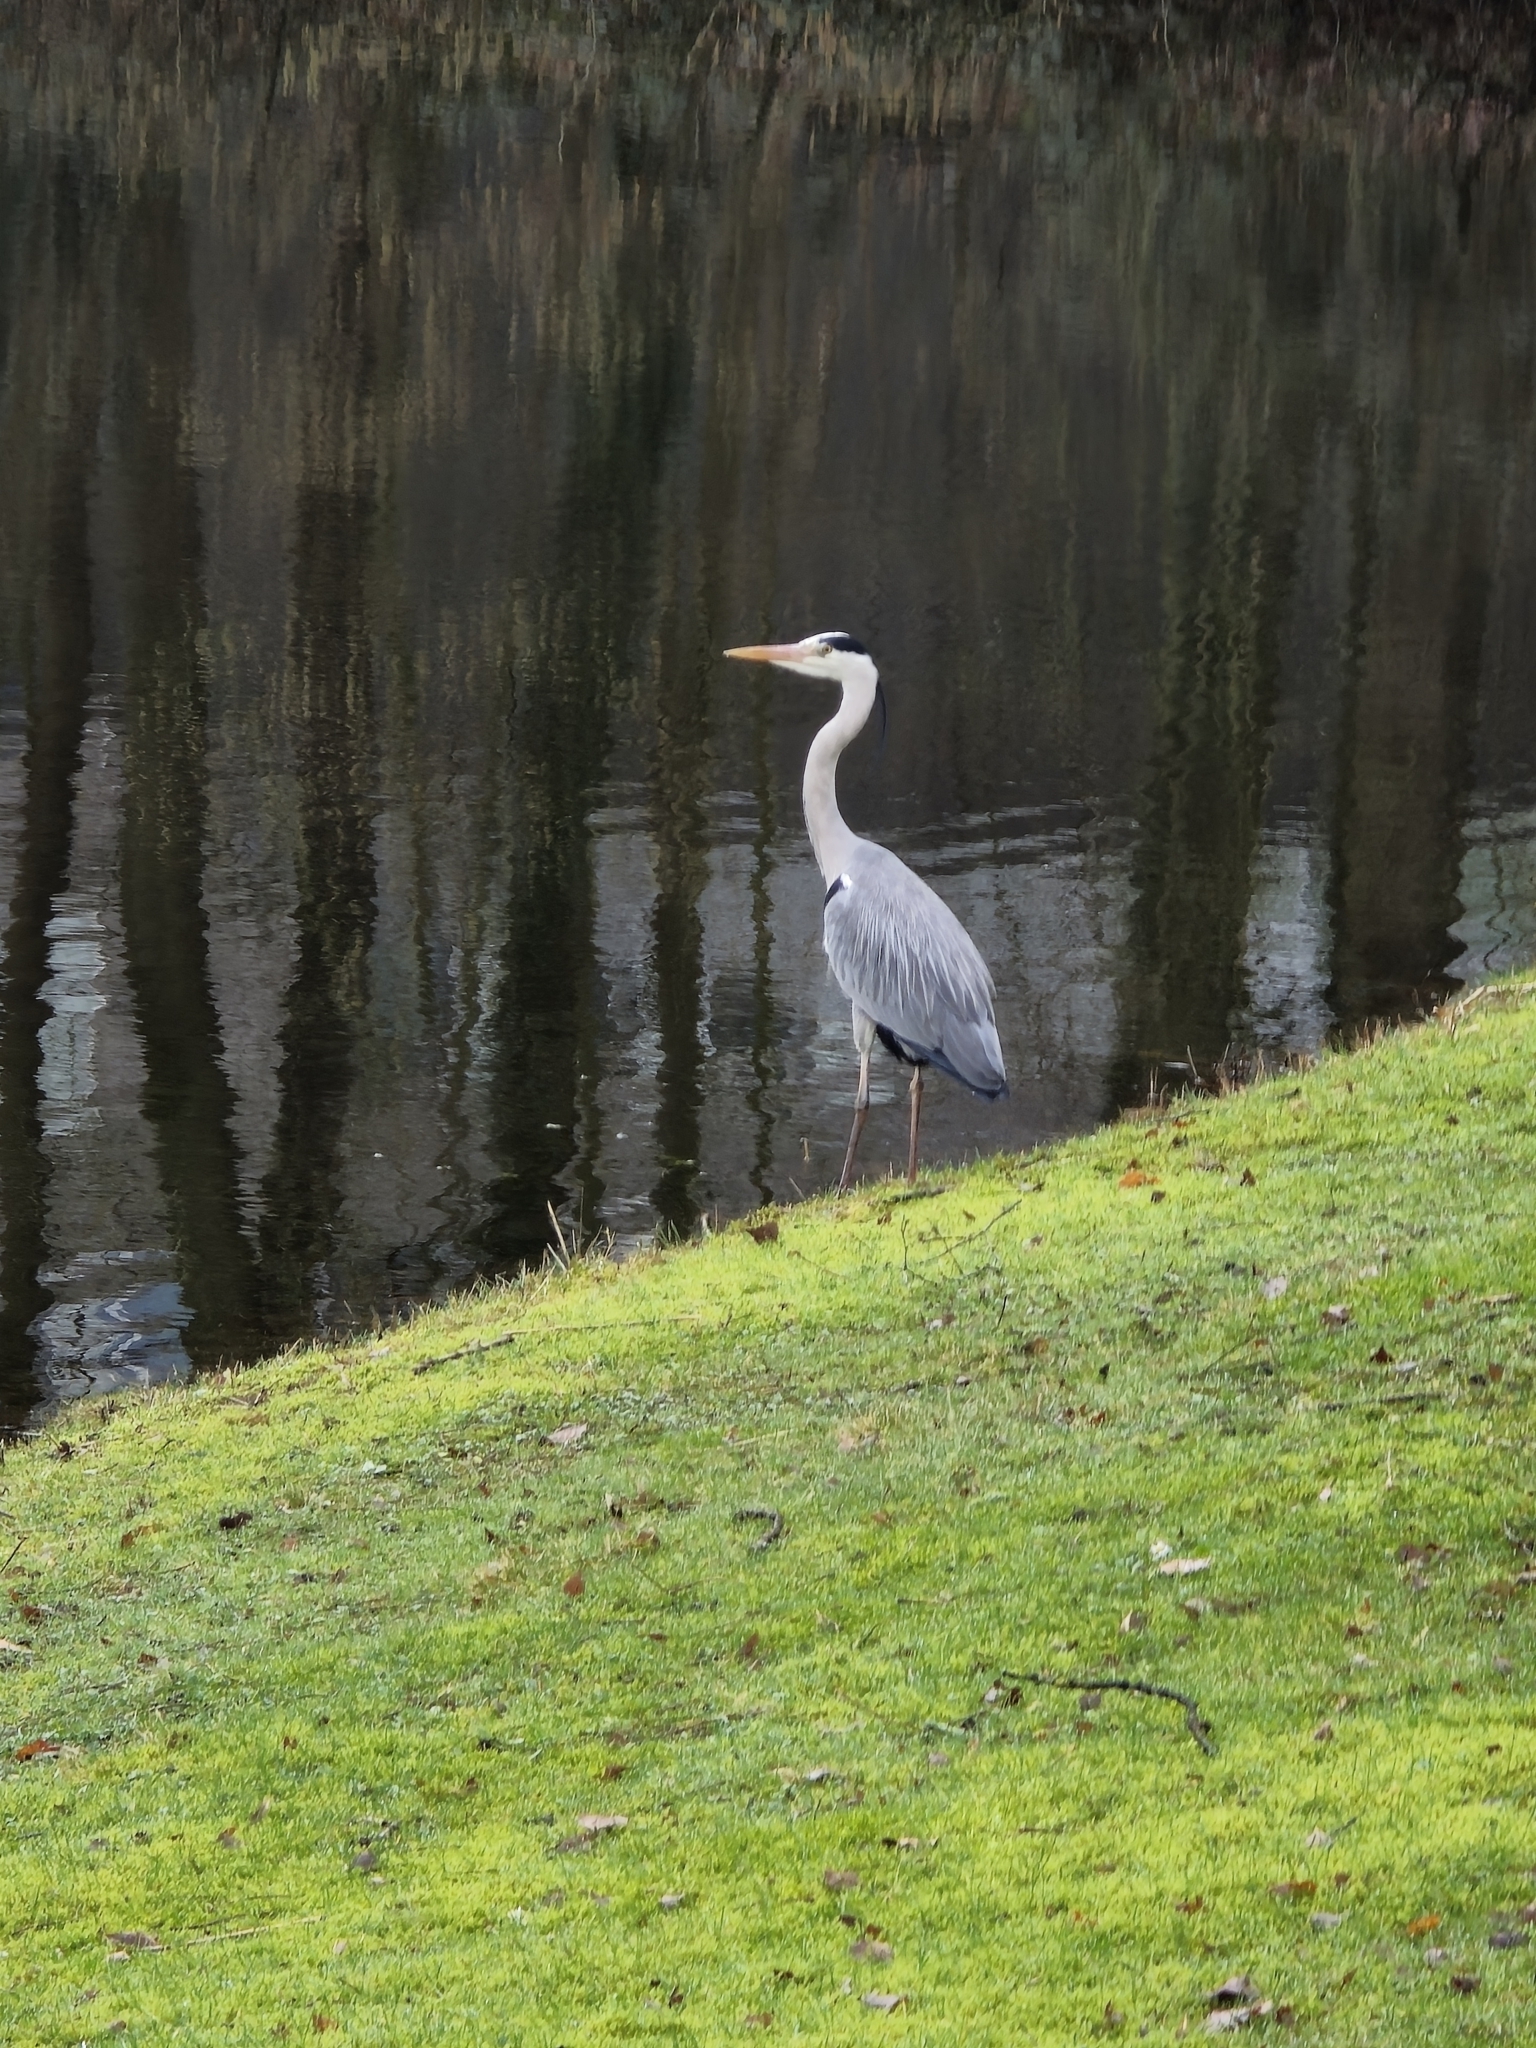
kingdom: Animalia
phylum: Chordata
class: Aves
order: Pelecaniformes
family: Ardeidae
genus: Ardea
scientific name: Ardea cinerea
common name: Grey heron
